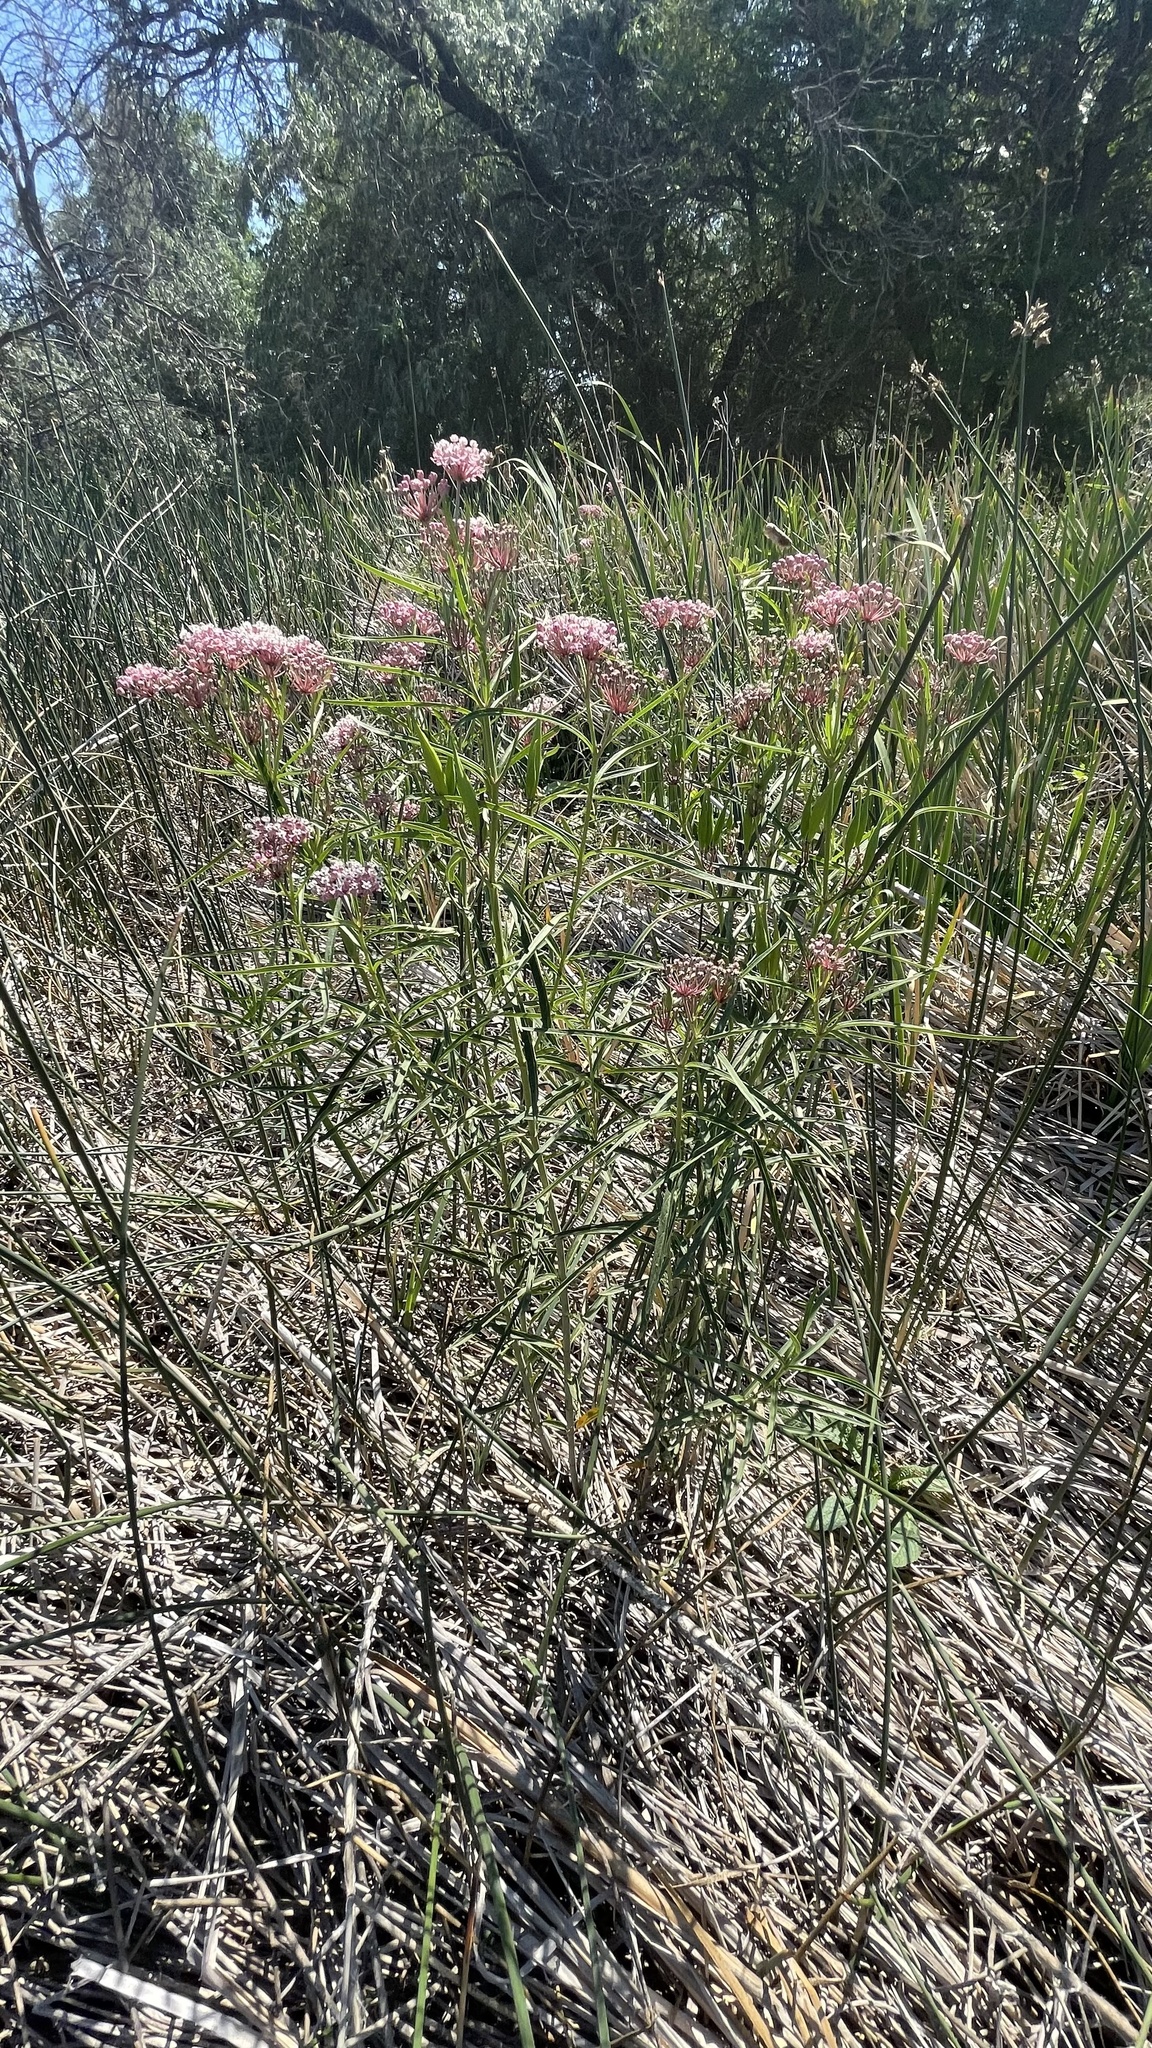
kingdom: Plantae
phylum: Tracheophyta
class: Magnoliopsida
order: Gentianales
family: Apocynaceae
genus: Asclepias
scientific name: Asclepias incarnata
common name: Swamp milkweed
